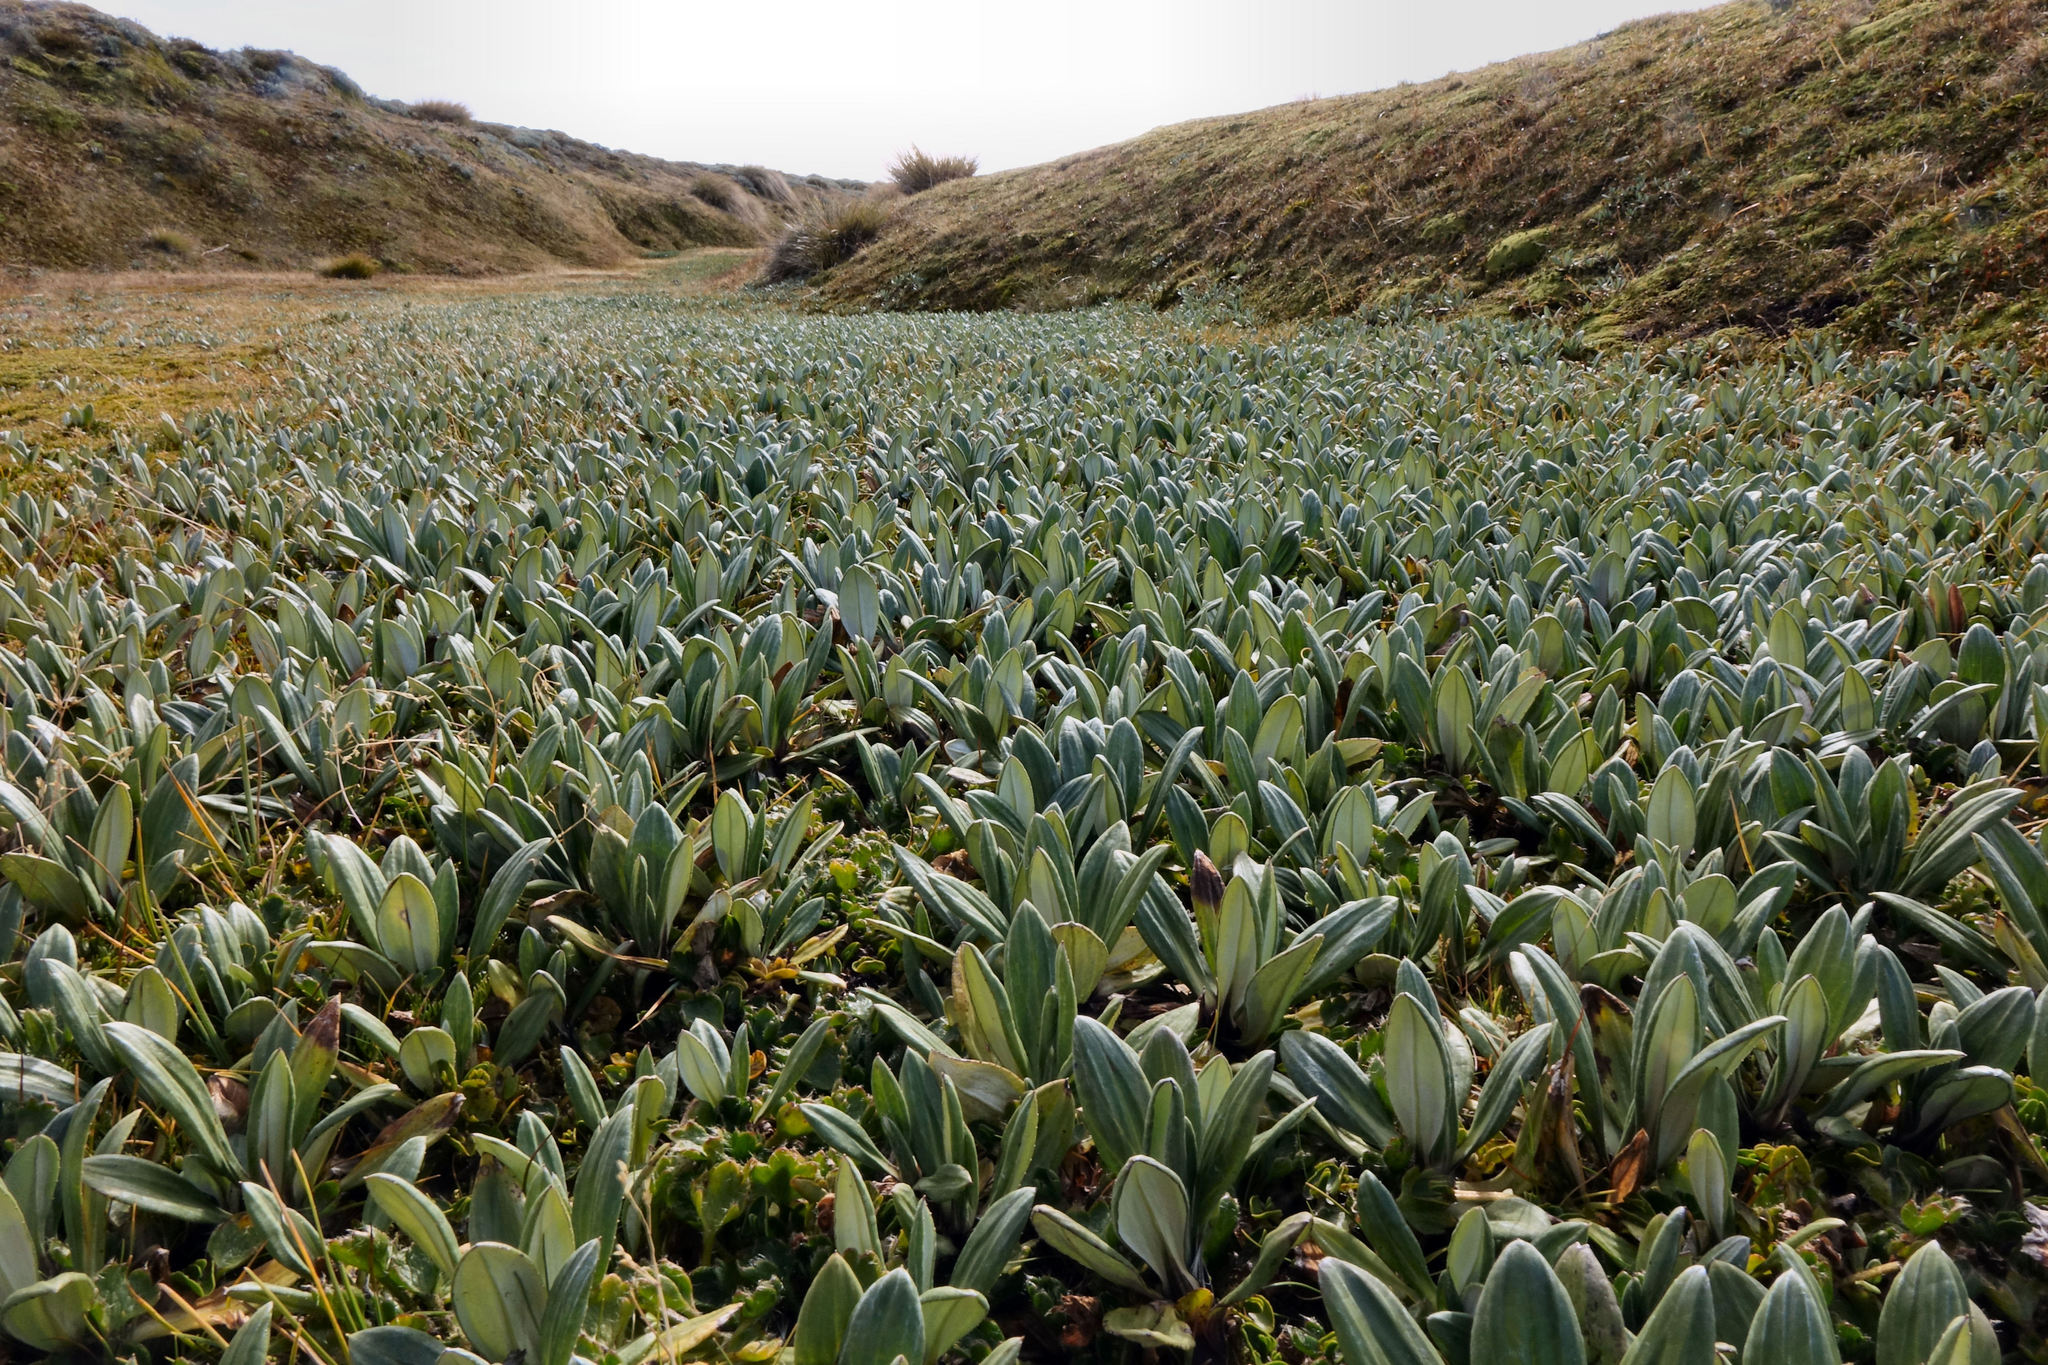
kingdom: Plantae
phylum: Tracheophyta
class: Magnoliopsida
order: Asterales
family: Asteraceae
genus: Celmisia
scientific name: Celmisia haastii
